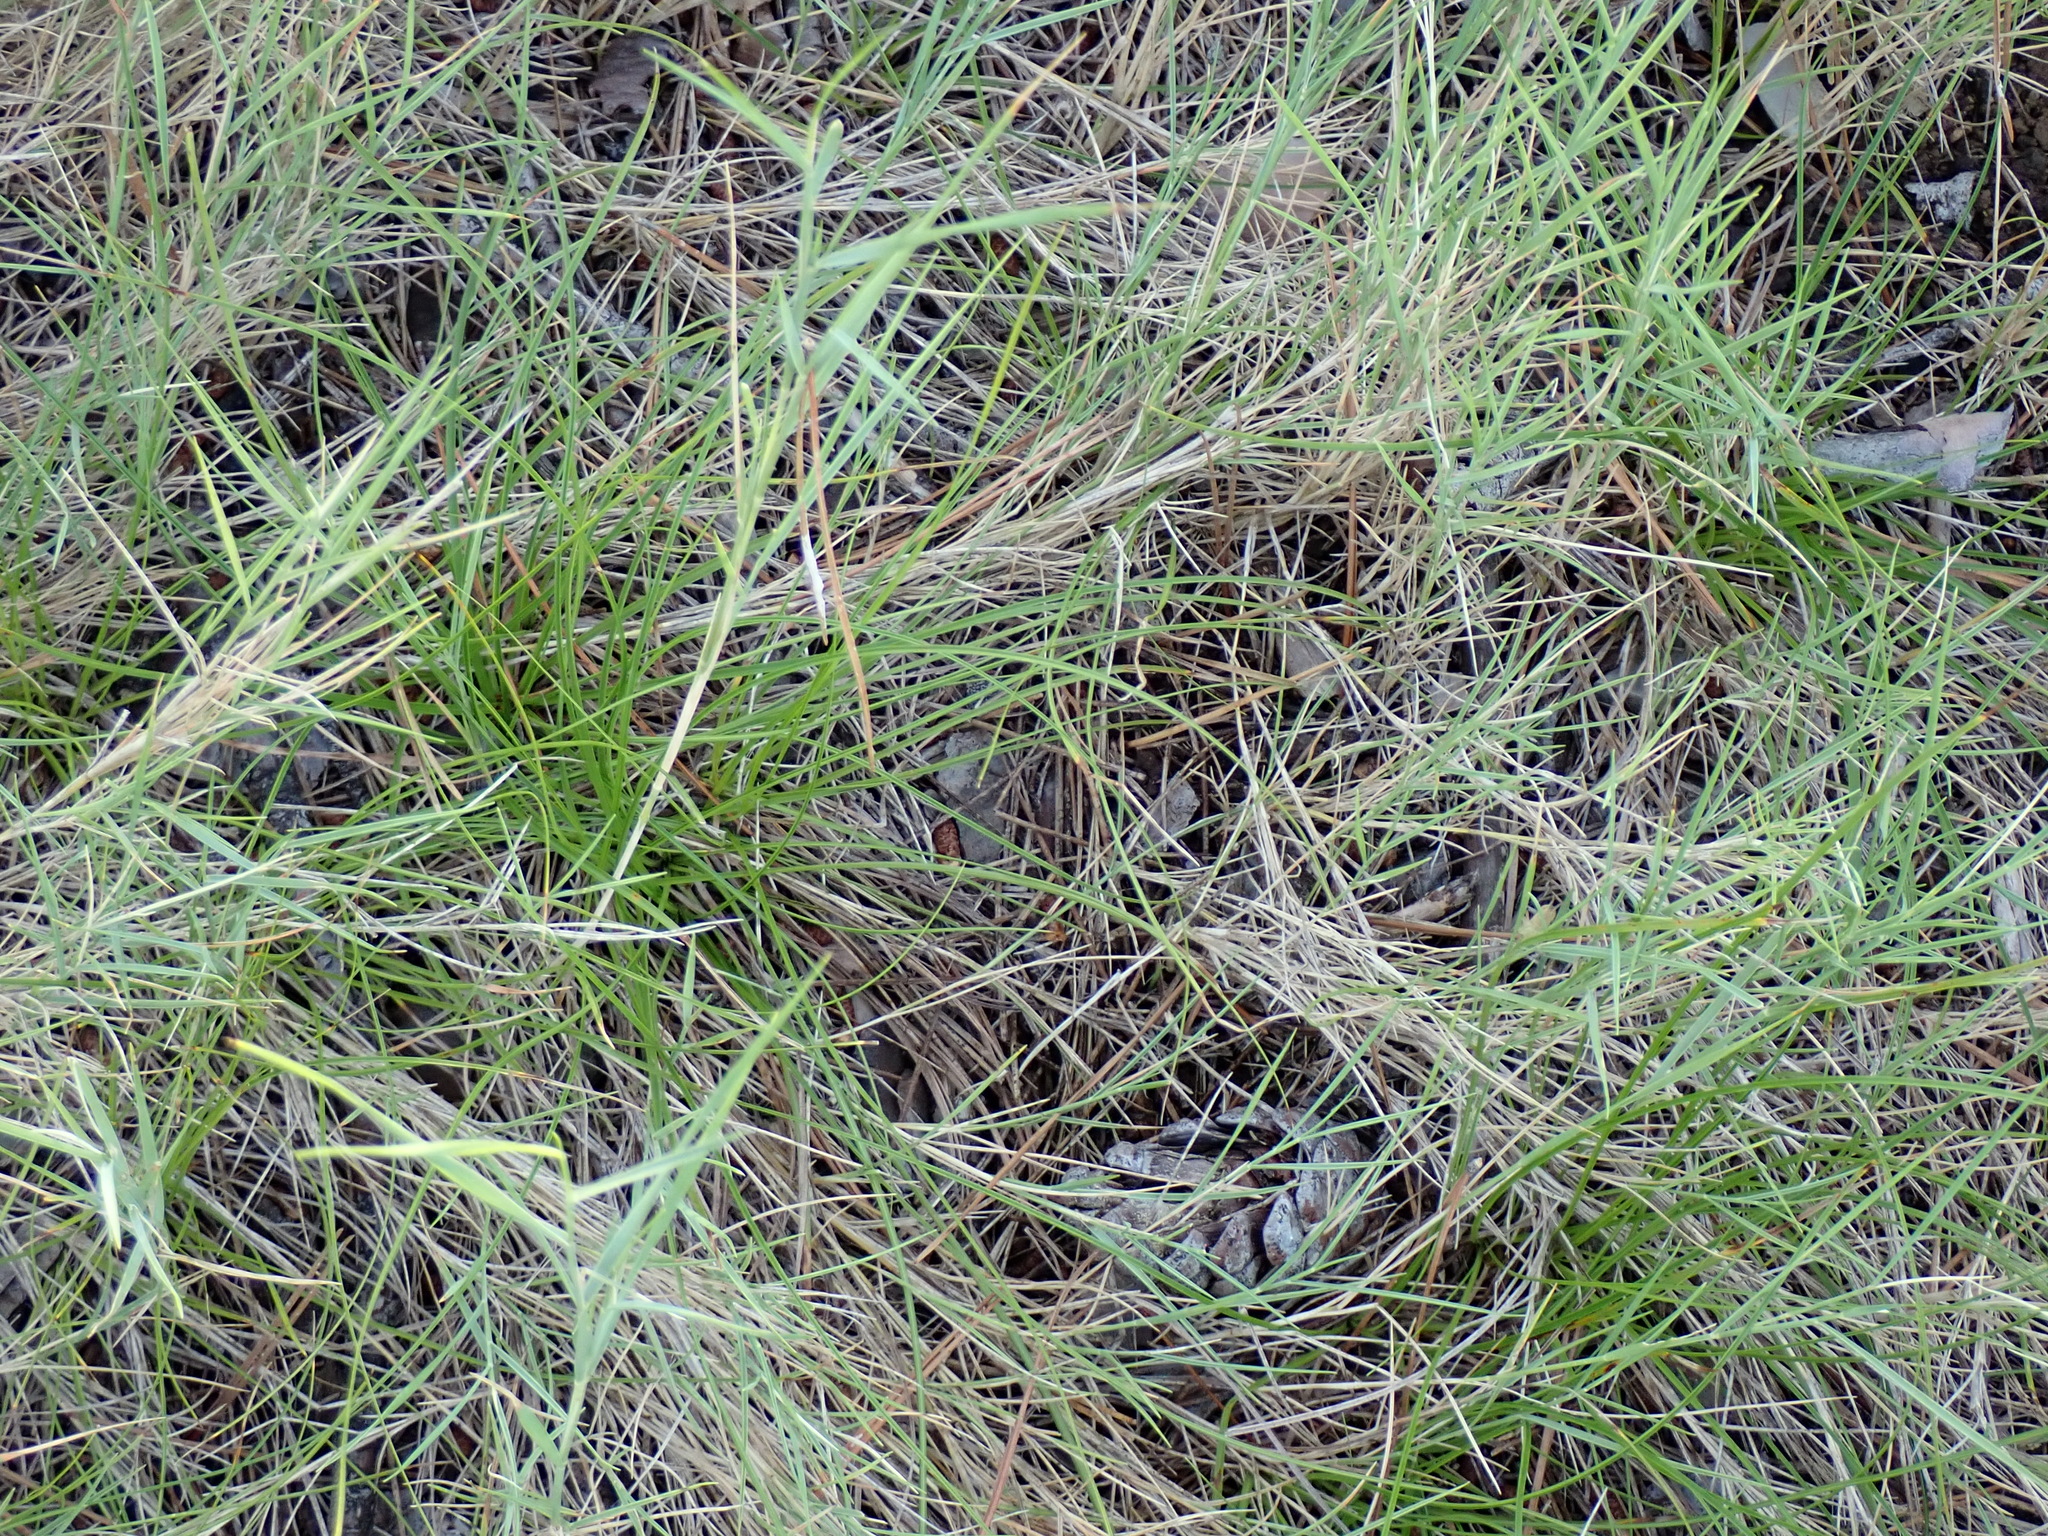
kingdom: Plantae
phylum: Tracheophyta
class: Liliopsida
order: Poales
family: Poaceae
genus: Brachypodium
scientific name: Brachypodium retusum
